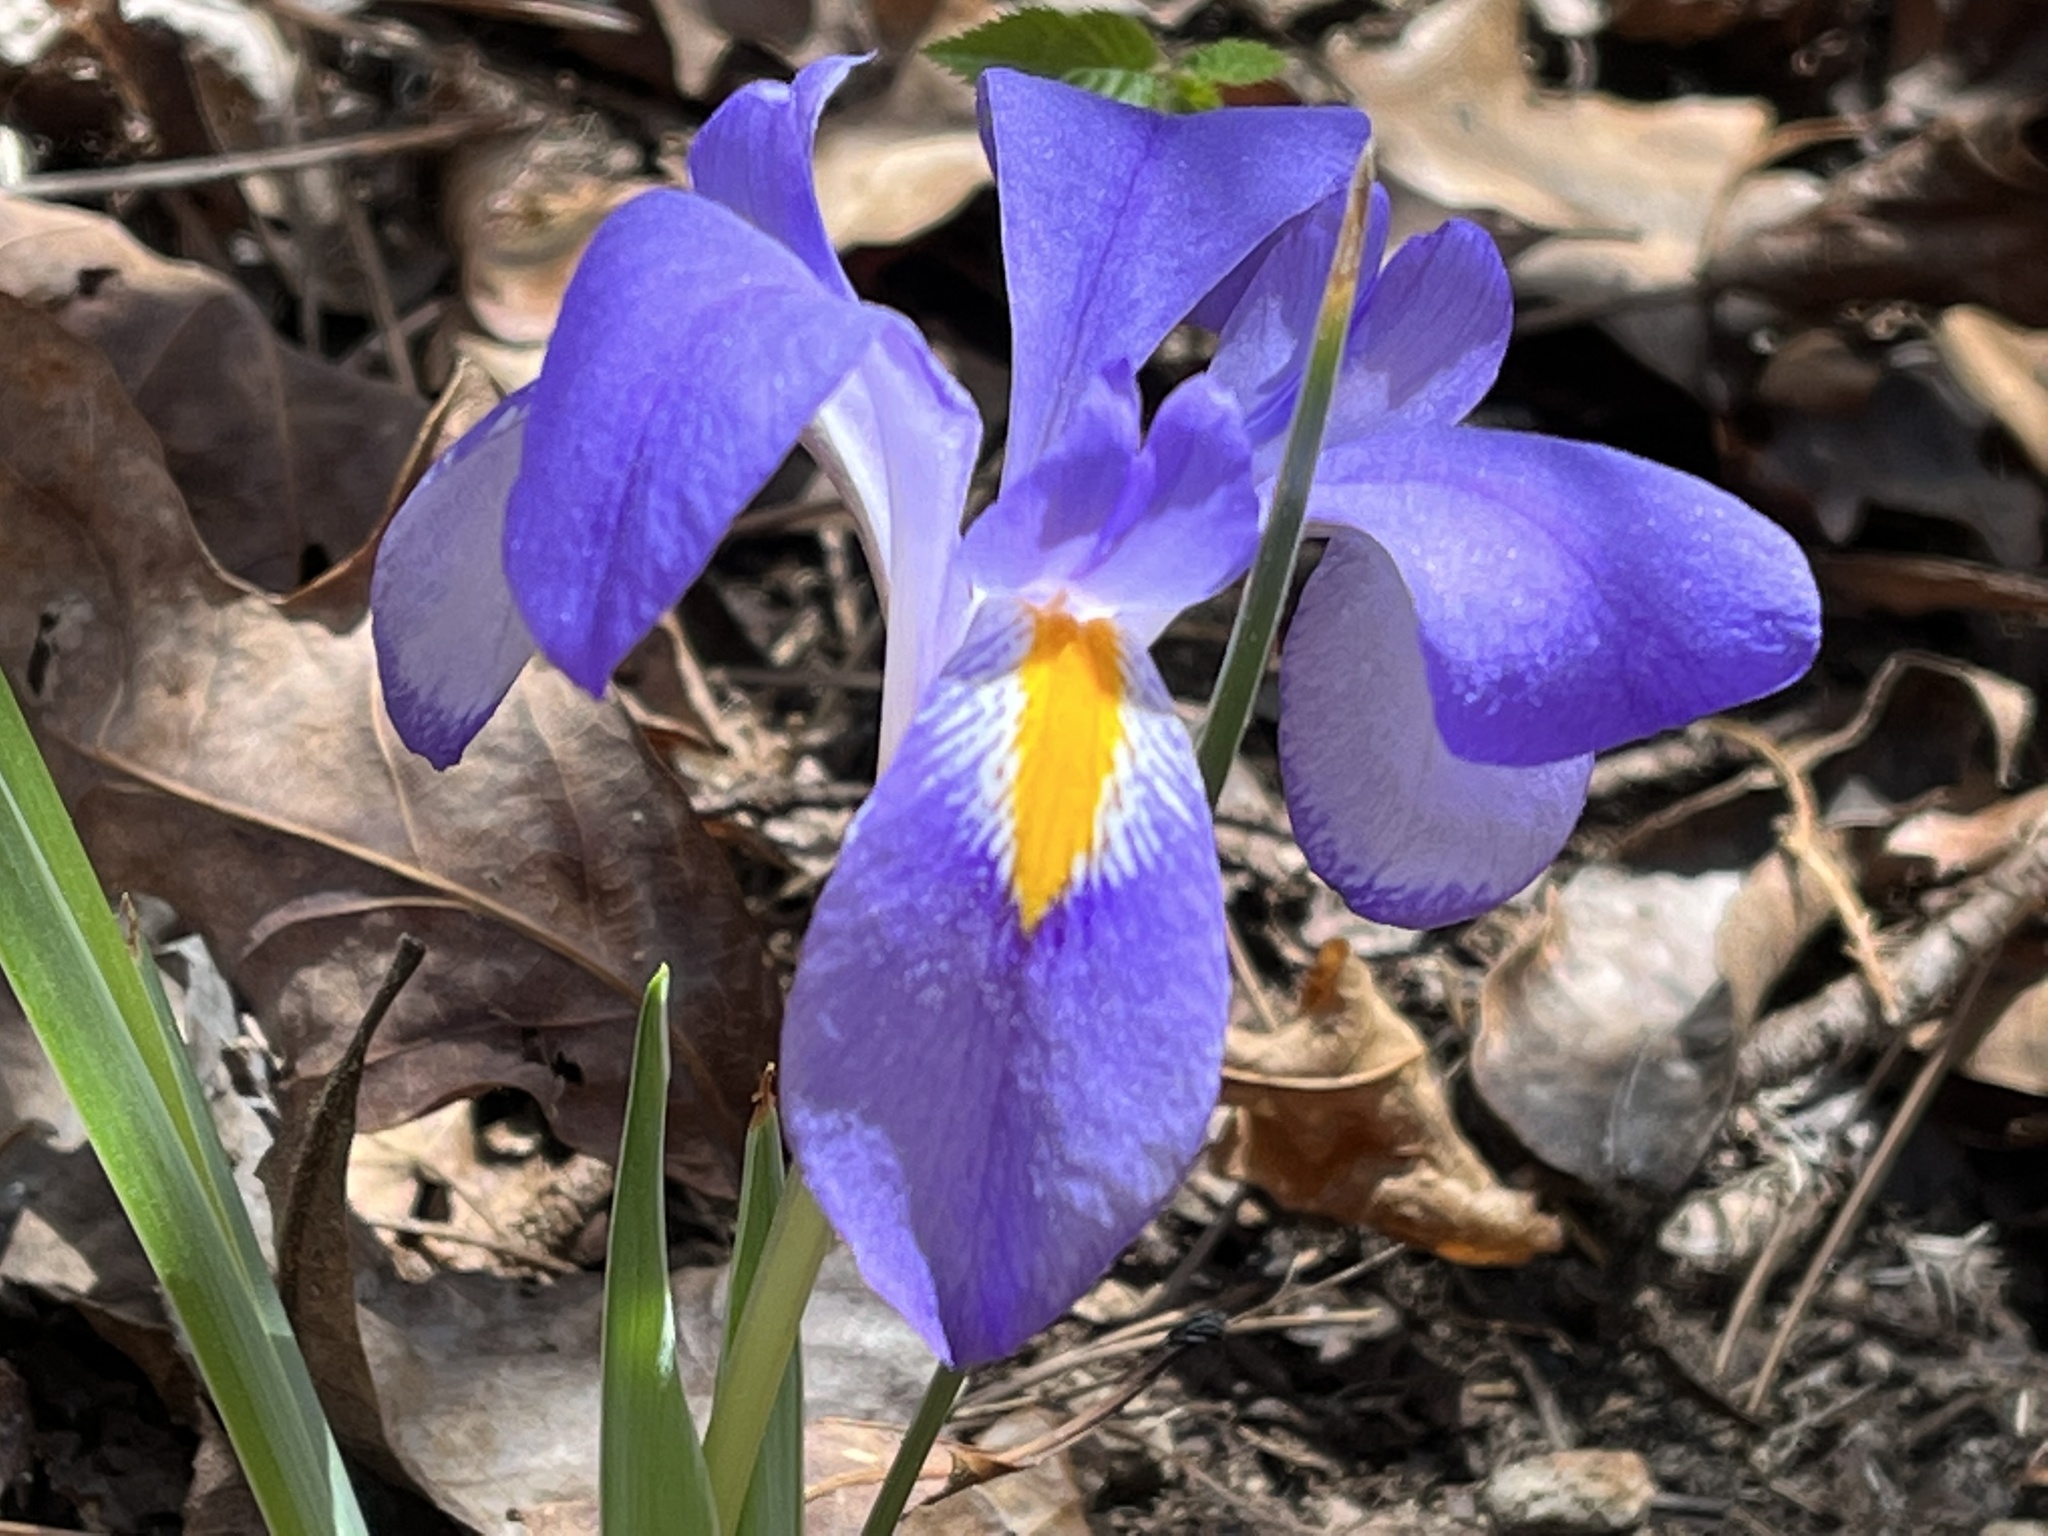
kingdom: Plantae
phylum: Tracheophyta
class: Liliopsida
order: Asparagales
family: Iridaceae
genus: Iris
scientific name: Iris verna
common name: Dwarf iris
